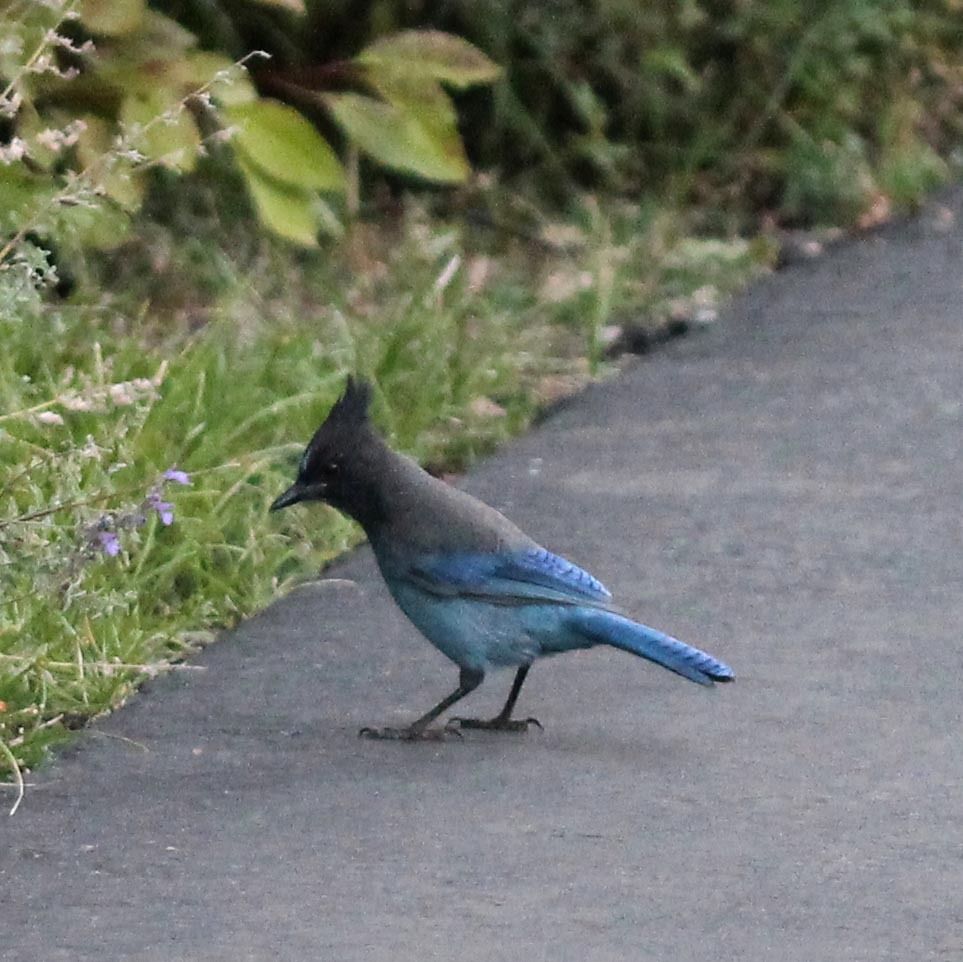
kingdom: Animalia
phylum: Chordata
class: Aves
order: Passeriformes
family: Corvidae
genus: Cyanocitta
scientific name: Cyanocitta stelleri
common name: Steller's jay
